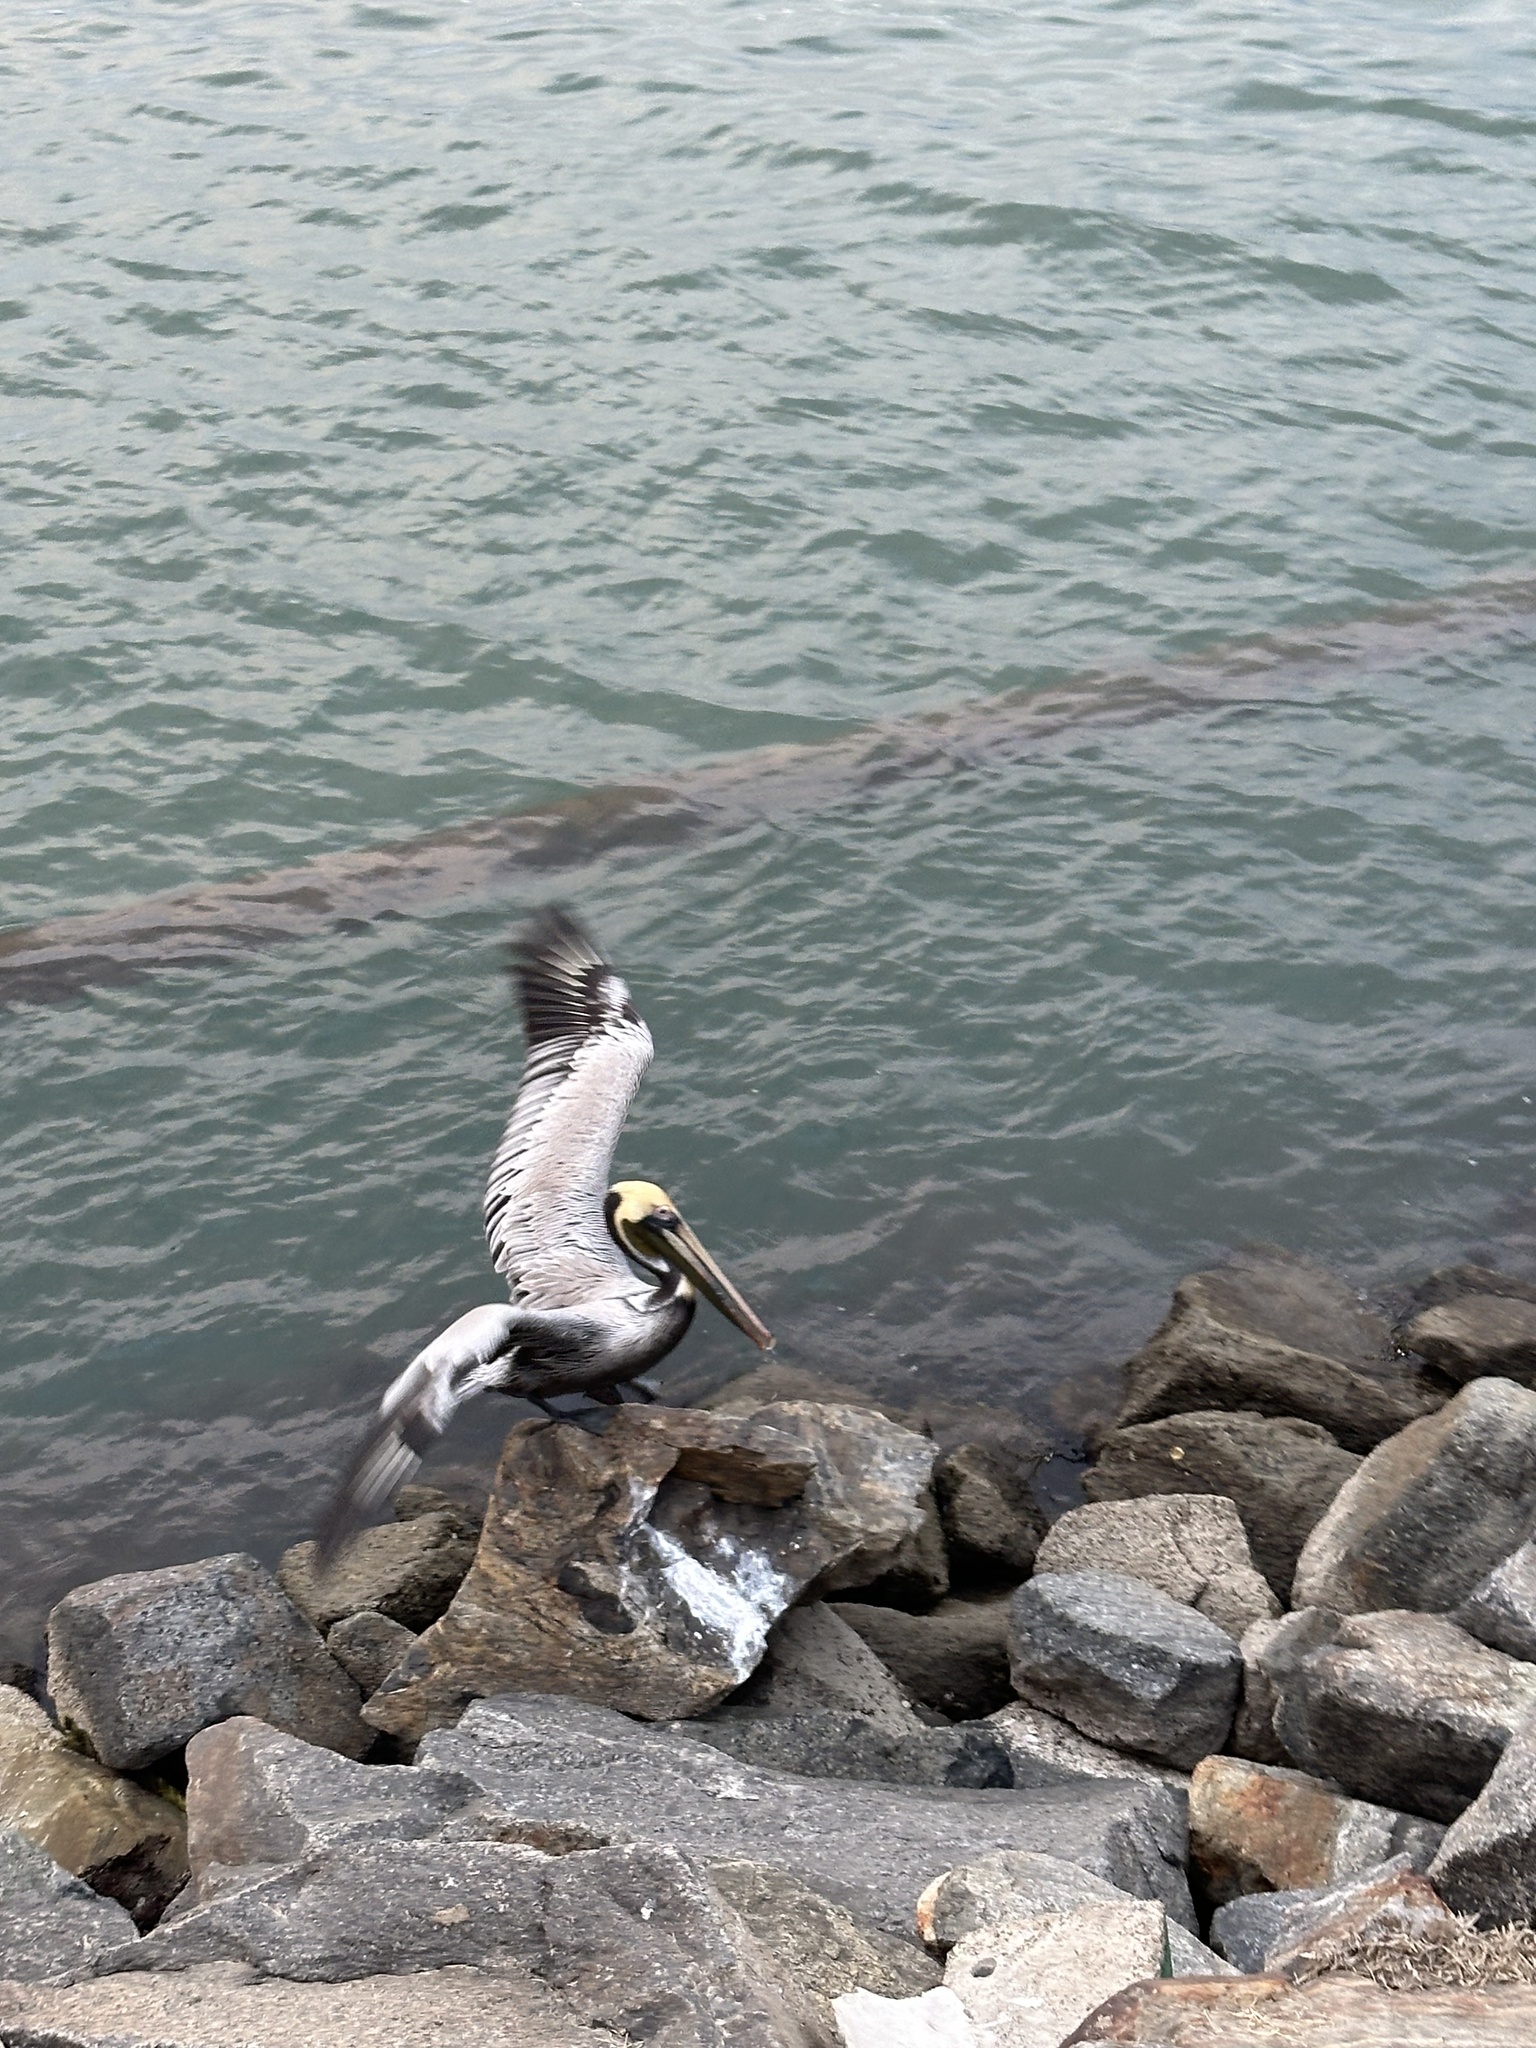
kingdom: Animalia
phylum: Chordata
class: Aves
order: Pelecaniformes
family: Pelecanidae
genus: Pelecanus
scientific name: Pelecanus occidentalis
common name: Brown pelican
